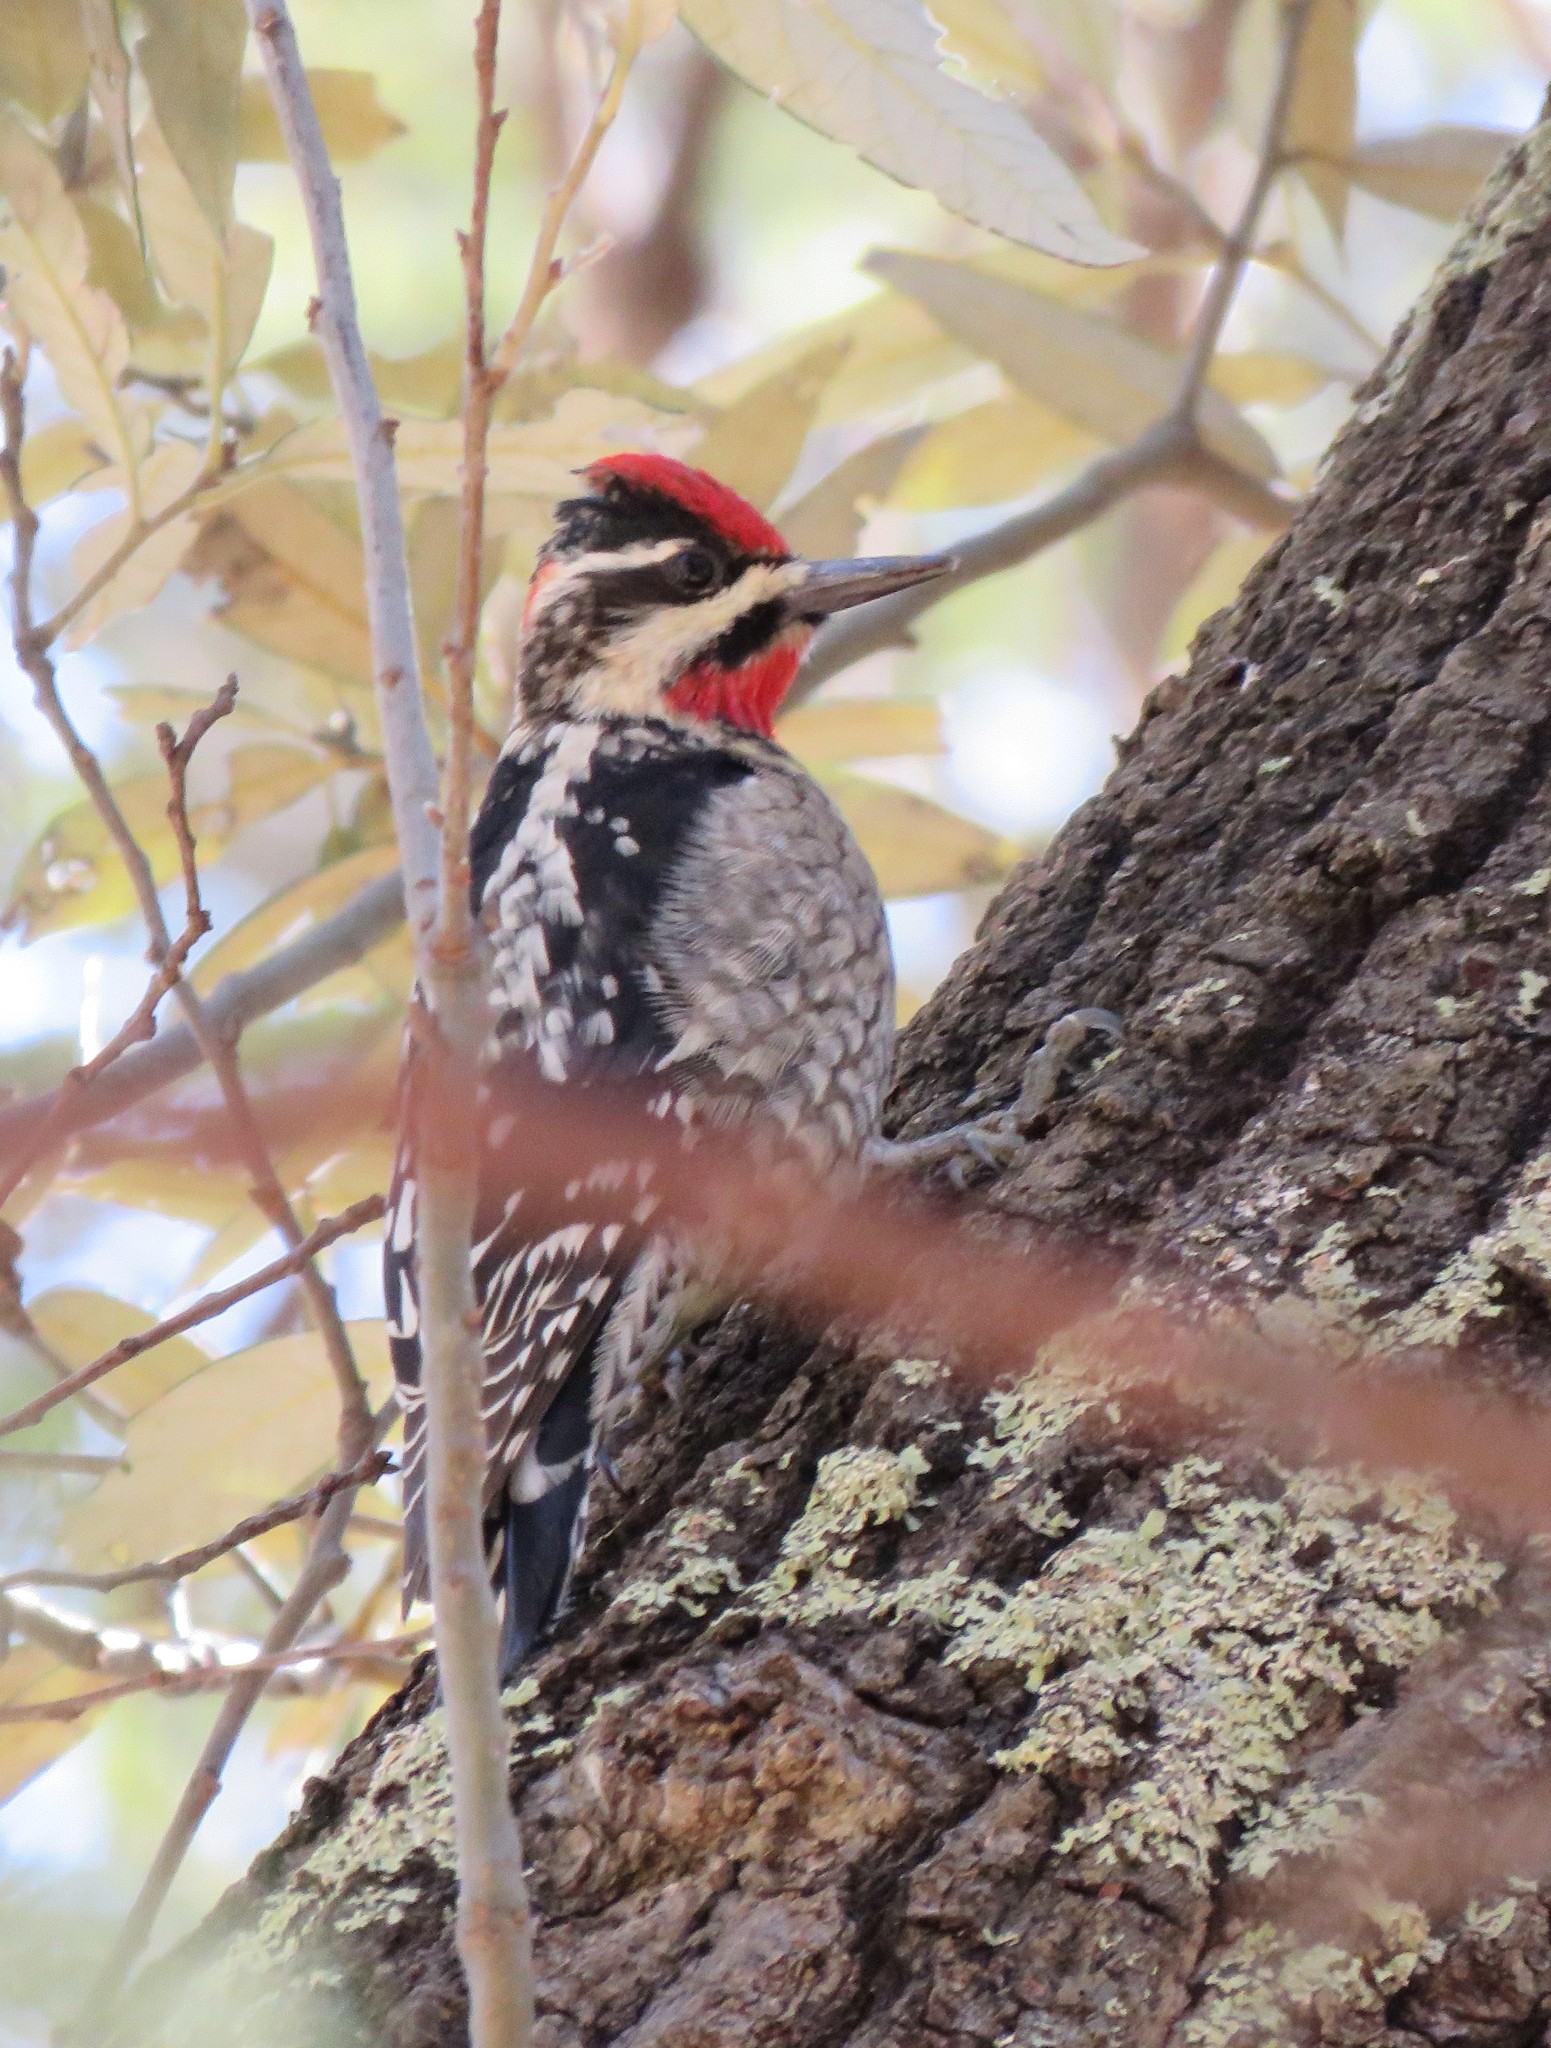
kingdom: Animalia
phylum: Chordata
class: Aves
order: Piciformes
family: Picidae
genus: Sphyrapicus
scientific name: Sphyrapicus nuchalis
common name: Red-naped sapsucker
